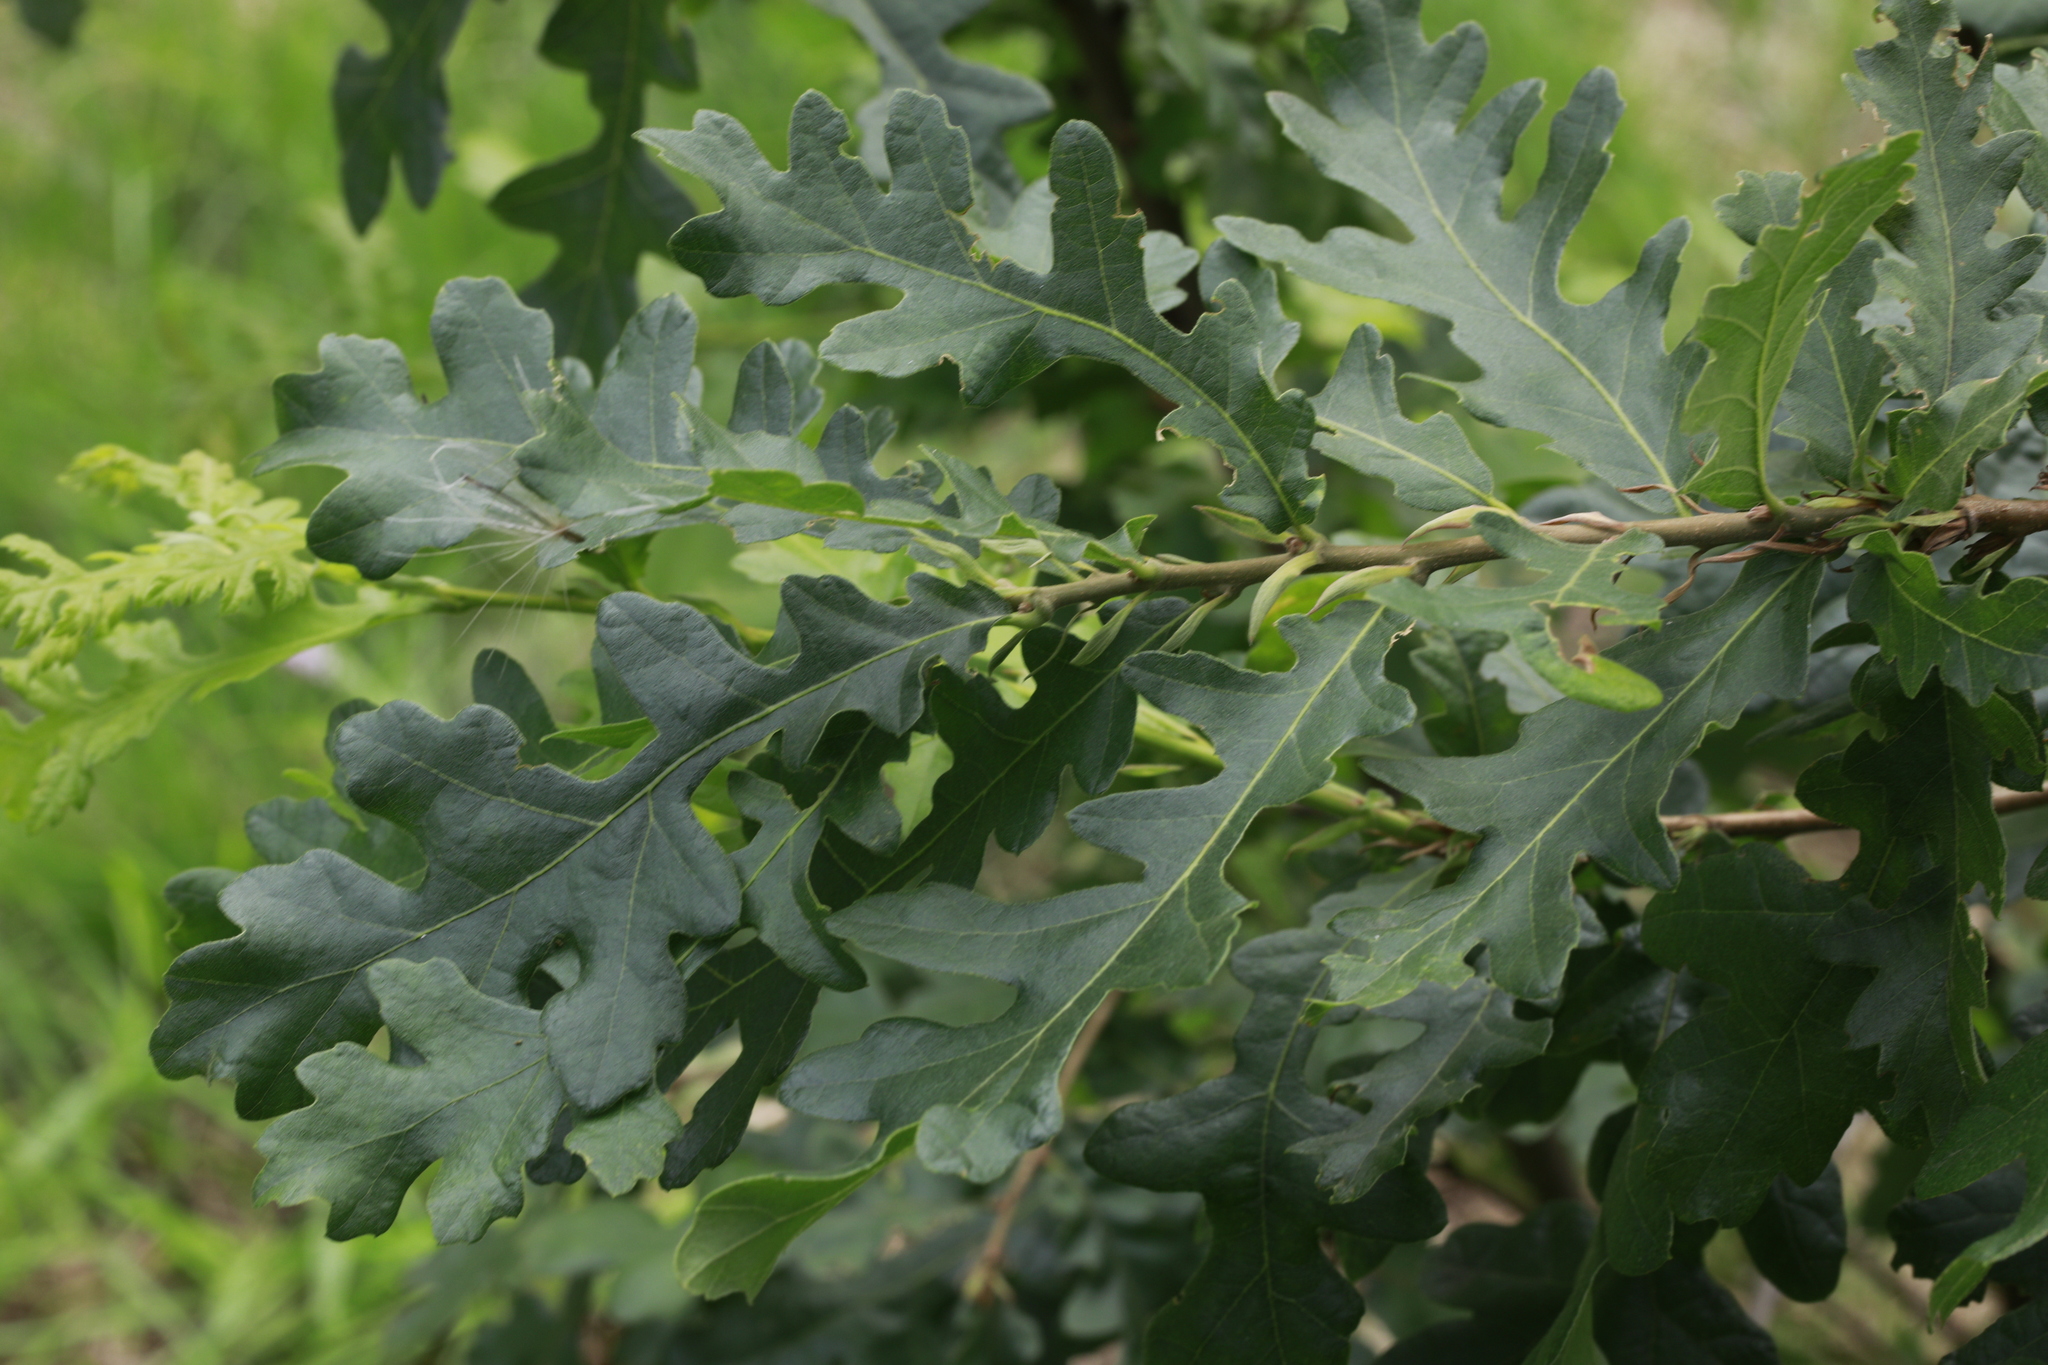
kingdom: Plantae
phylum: Tracheophyta
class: Magnoliopsida
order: Fagales
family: Fagaceae
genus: Quercus
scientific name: Quercus cerris
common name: Turkey oak
